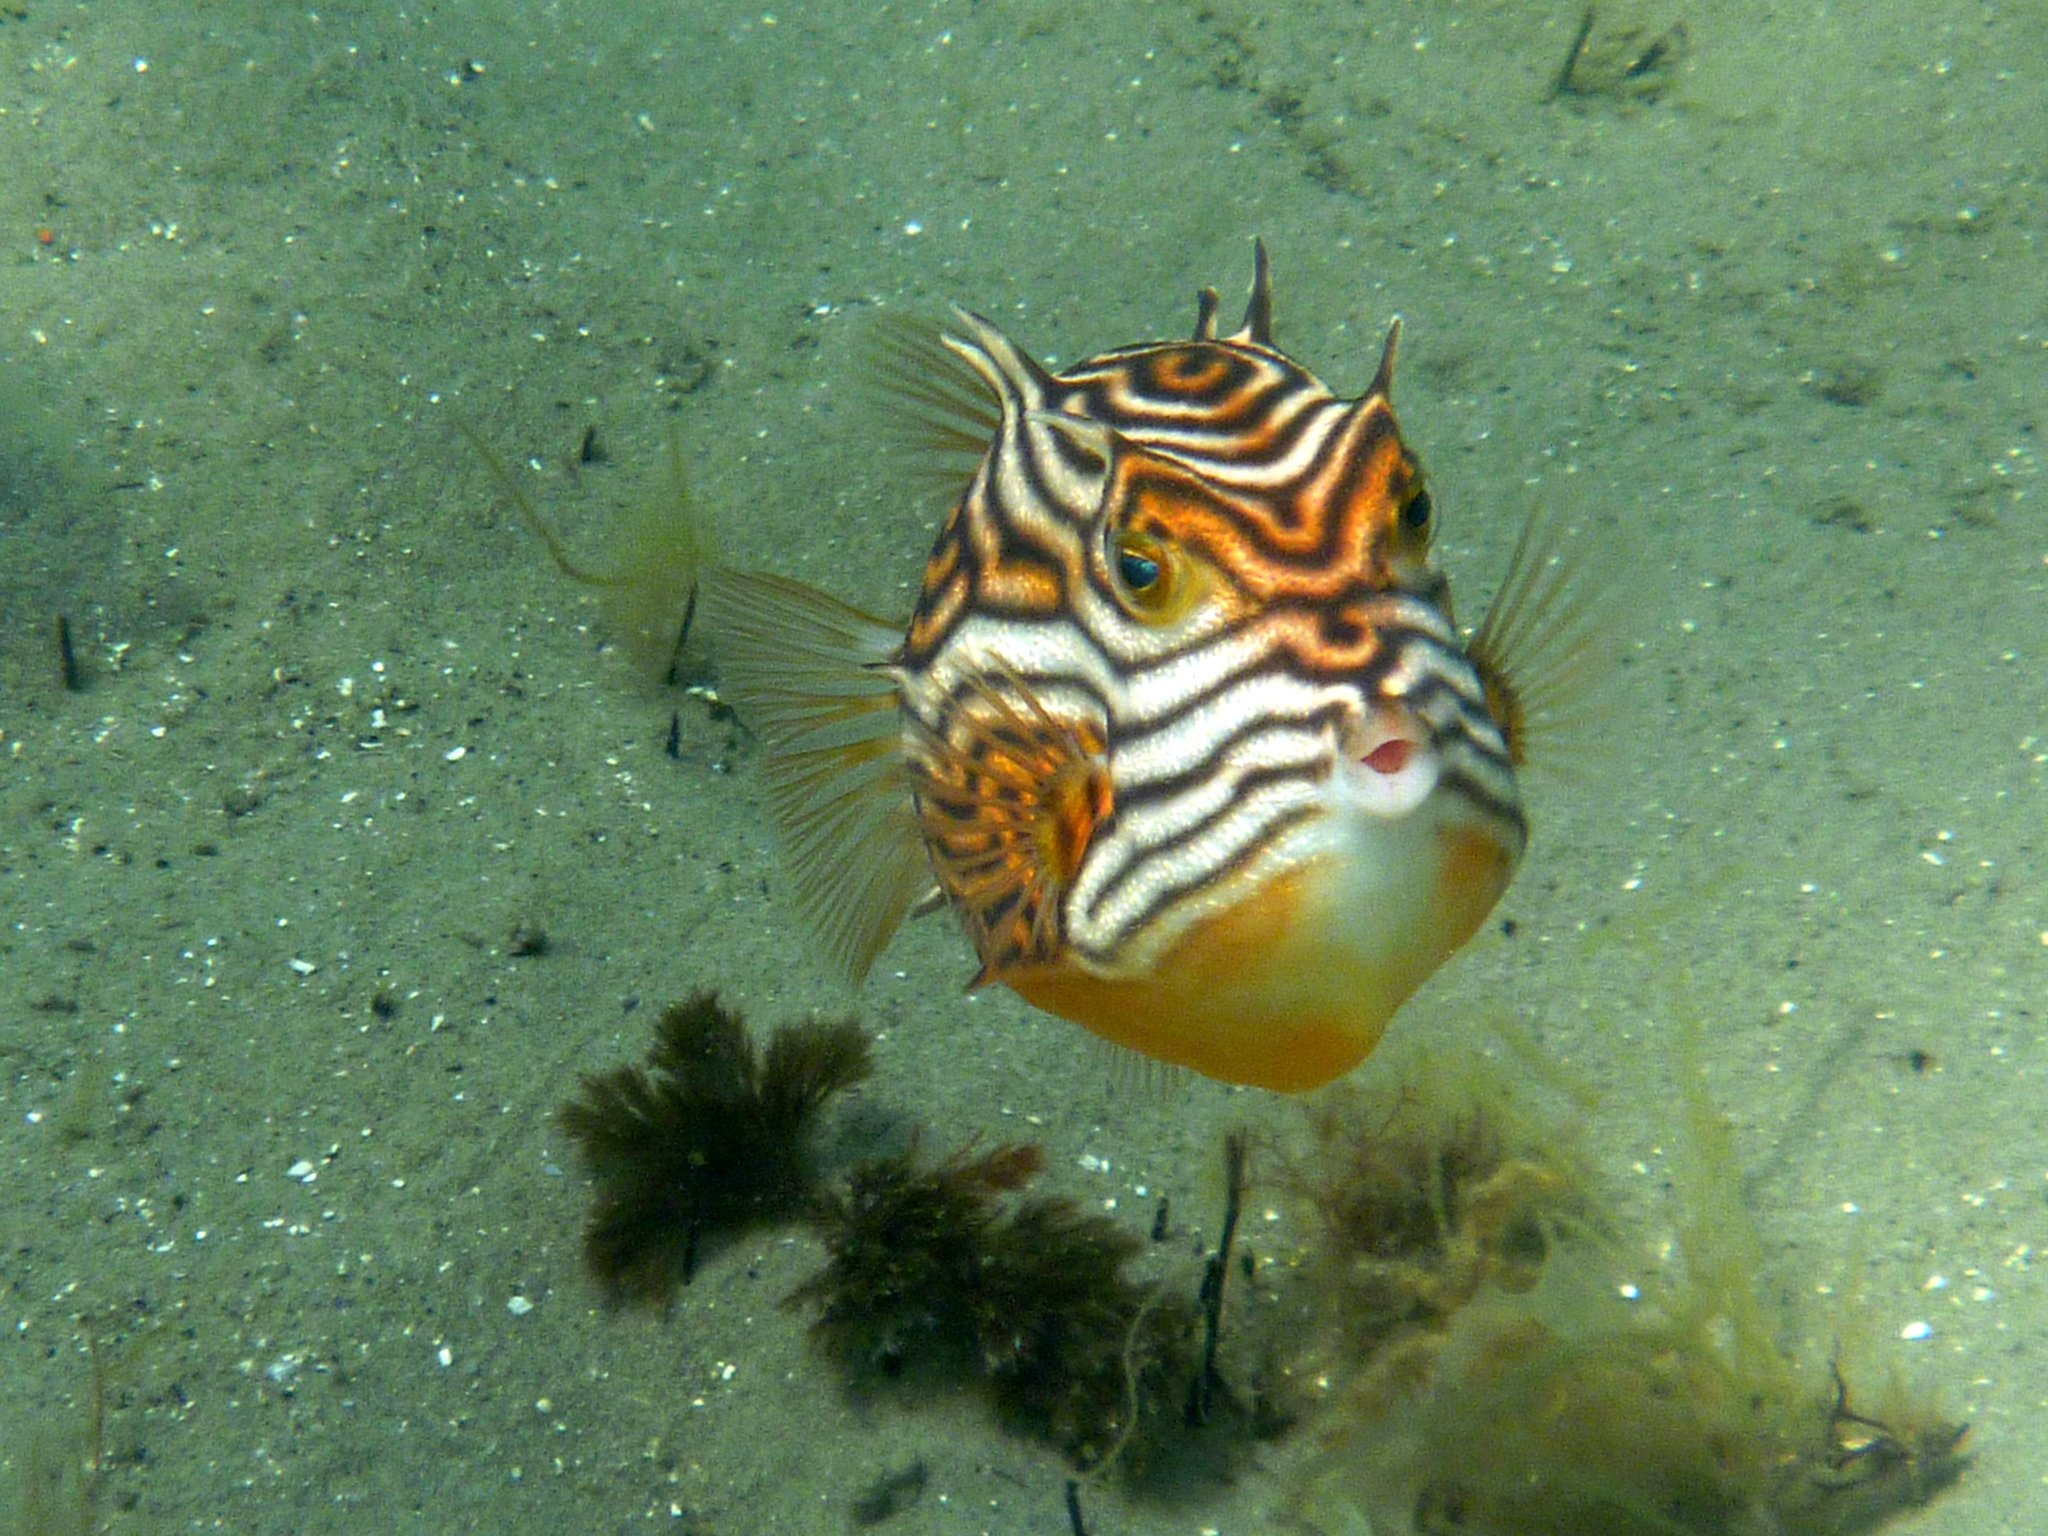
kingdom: Animalia
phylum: Chordata
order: Tetraodontiformes
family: Aracanidae
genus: Aracana
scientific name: Aracana aurita
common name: Shaw’s cowfish
